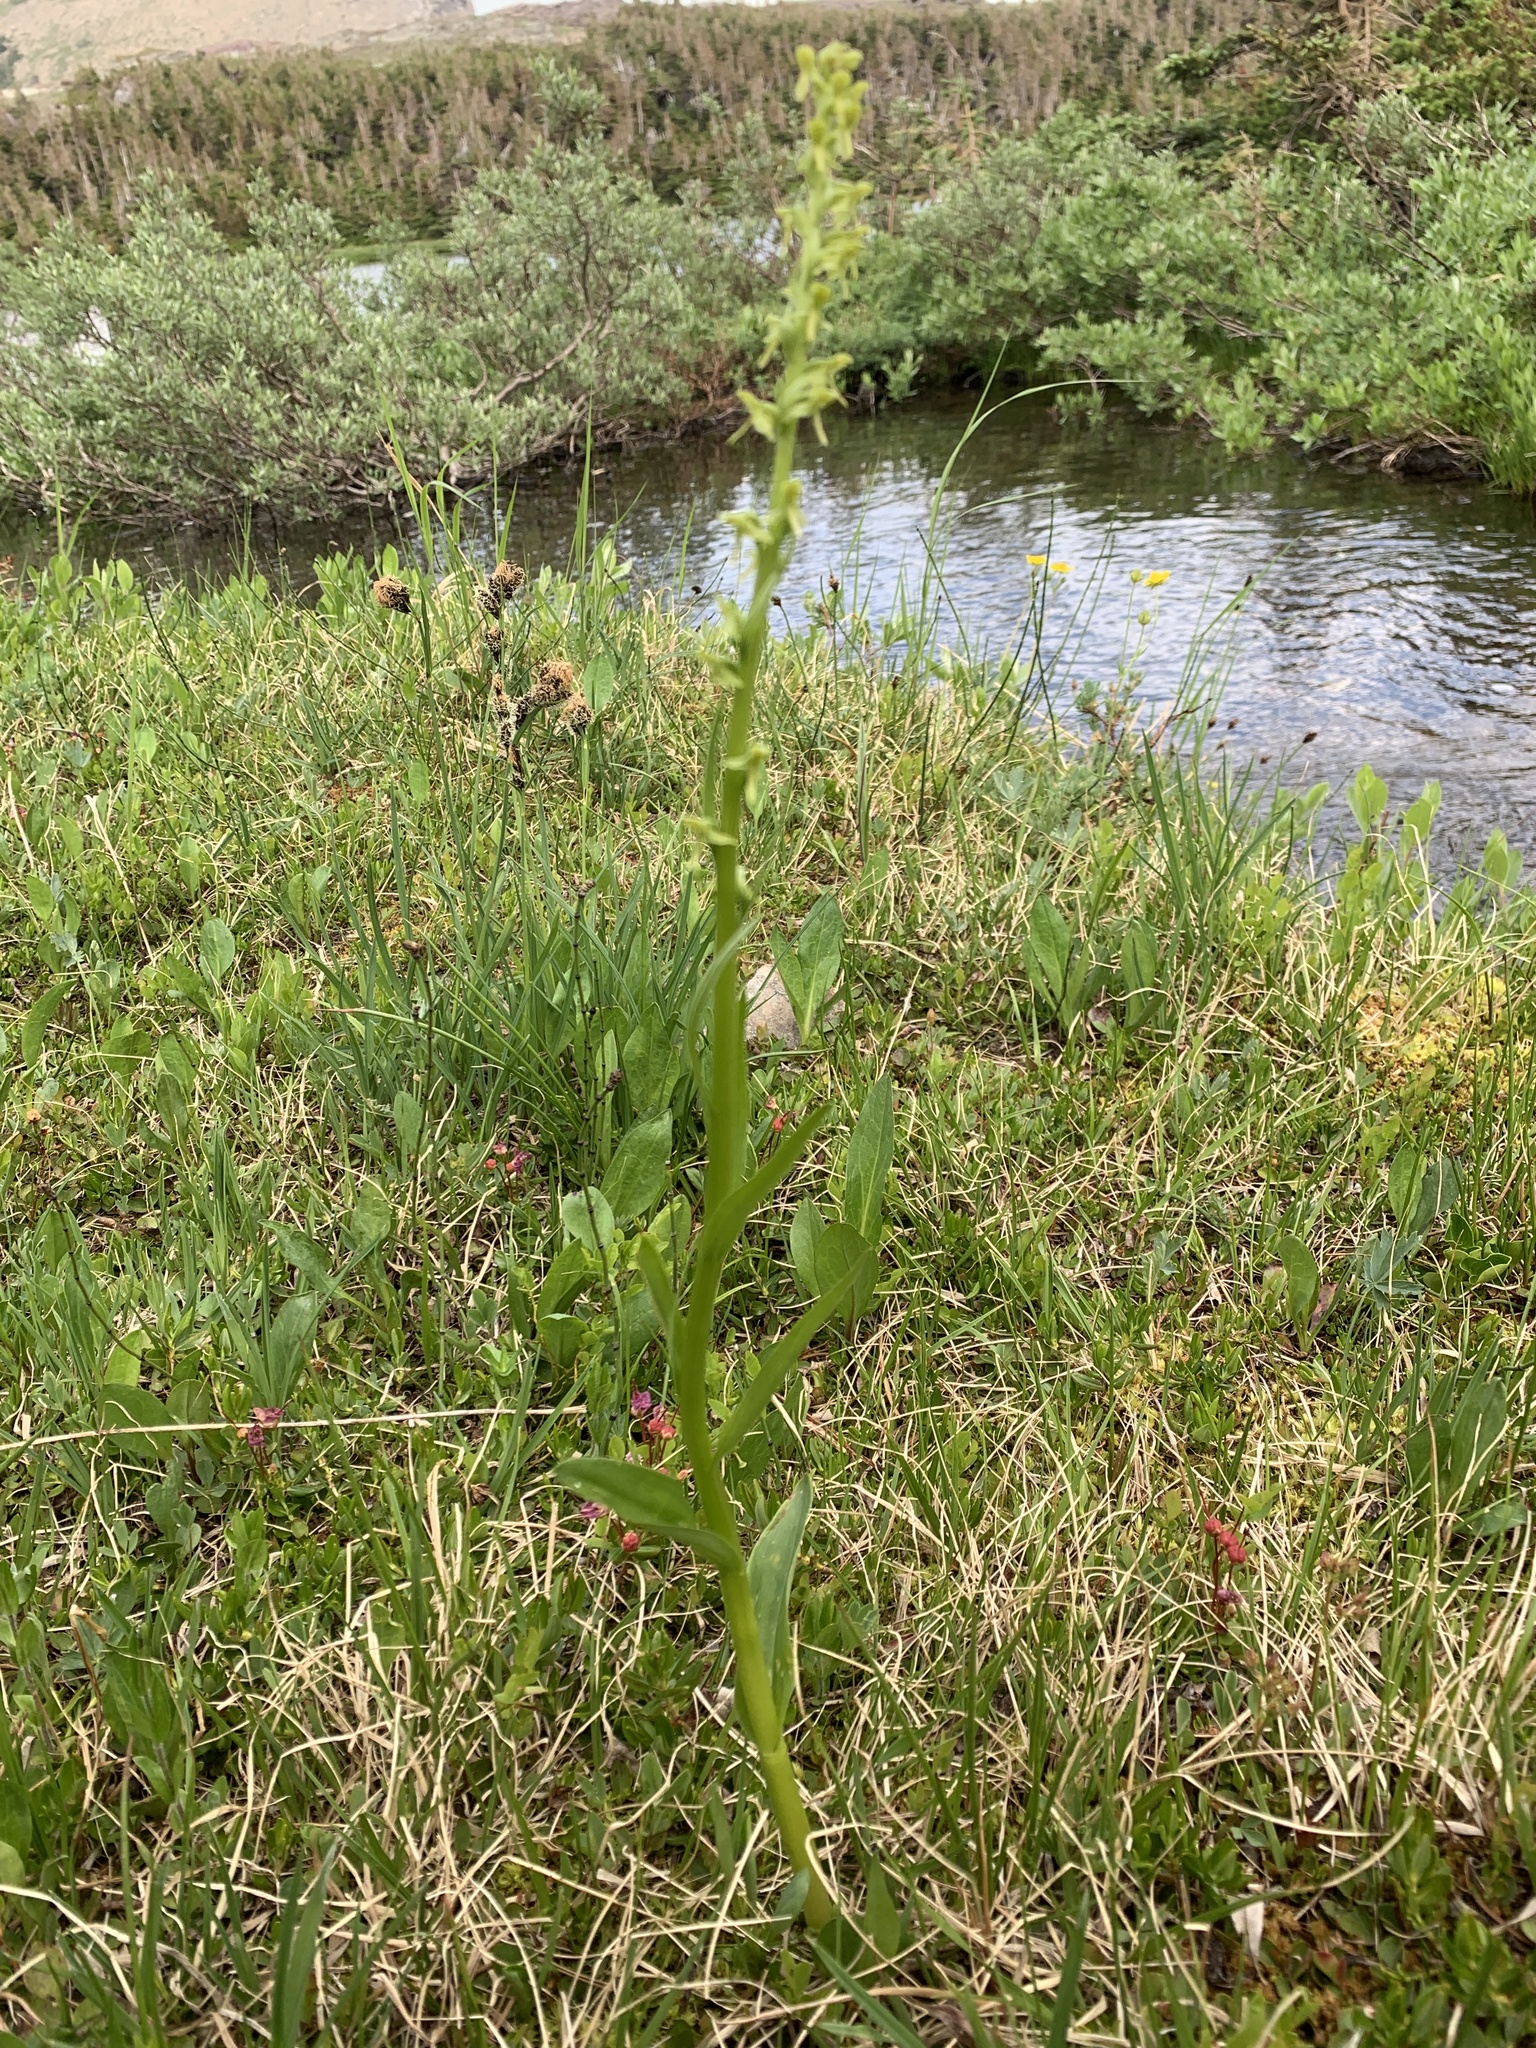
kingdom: Plantae
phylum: Tracheophyta
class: Liliopsida
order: Asparagales
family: Orchidaceae
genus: Platanthera
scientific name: Platanthera stricta
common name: Slender bog orchid
